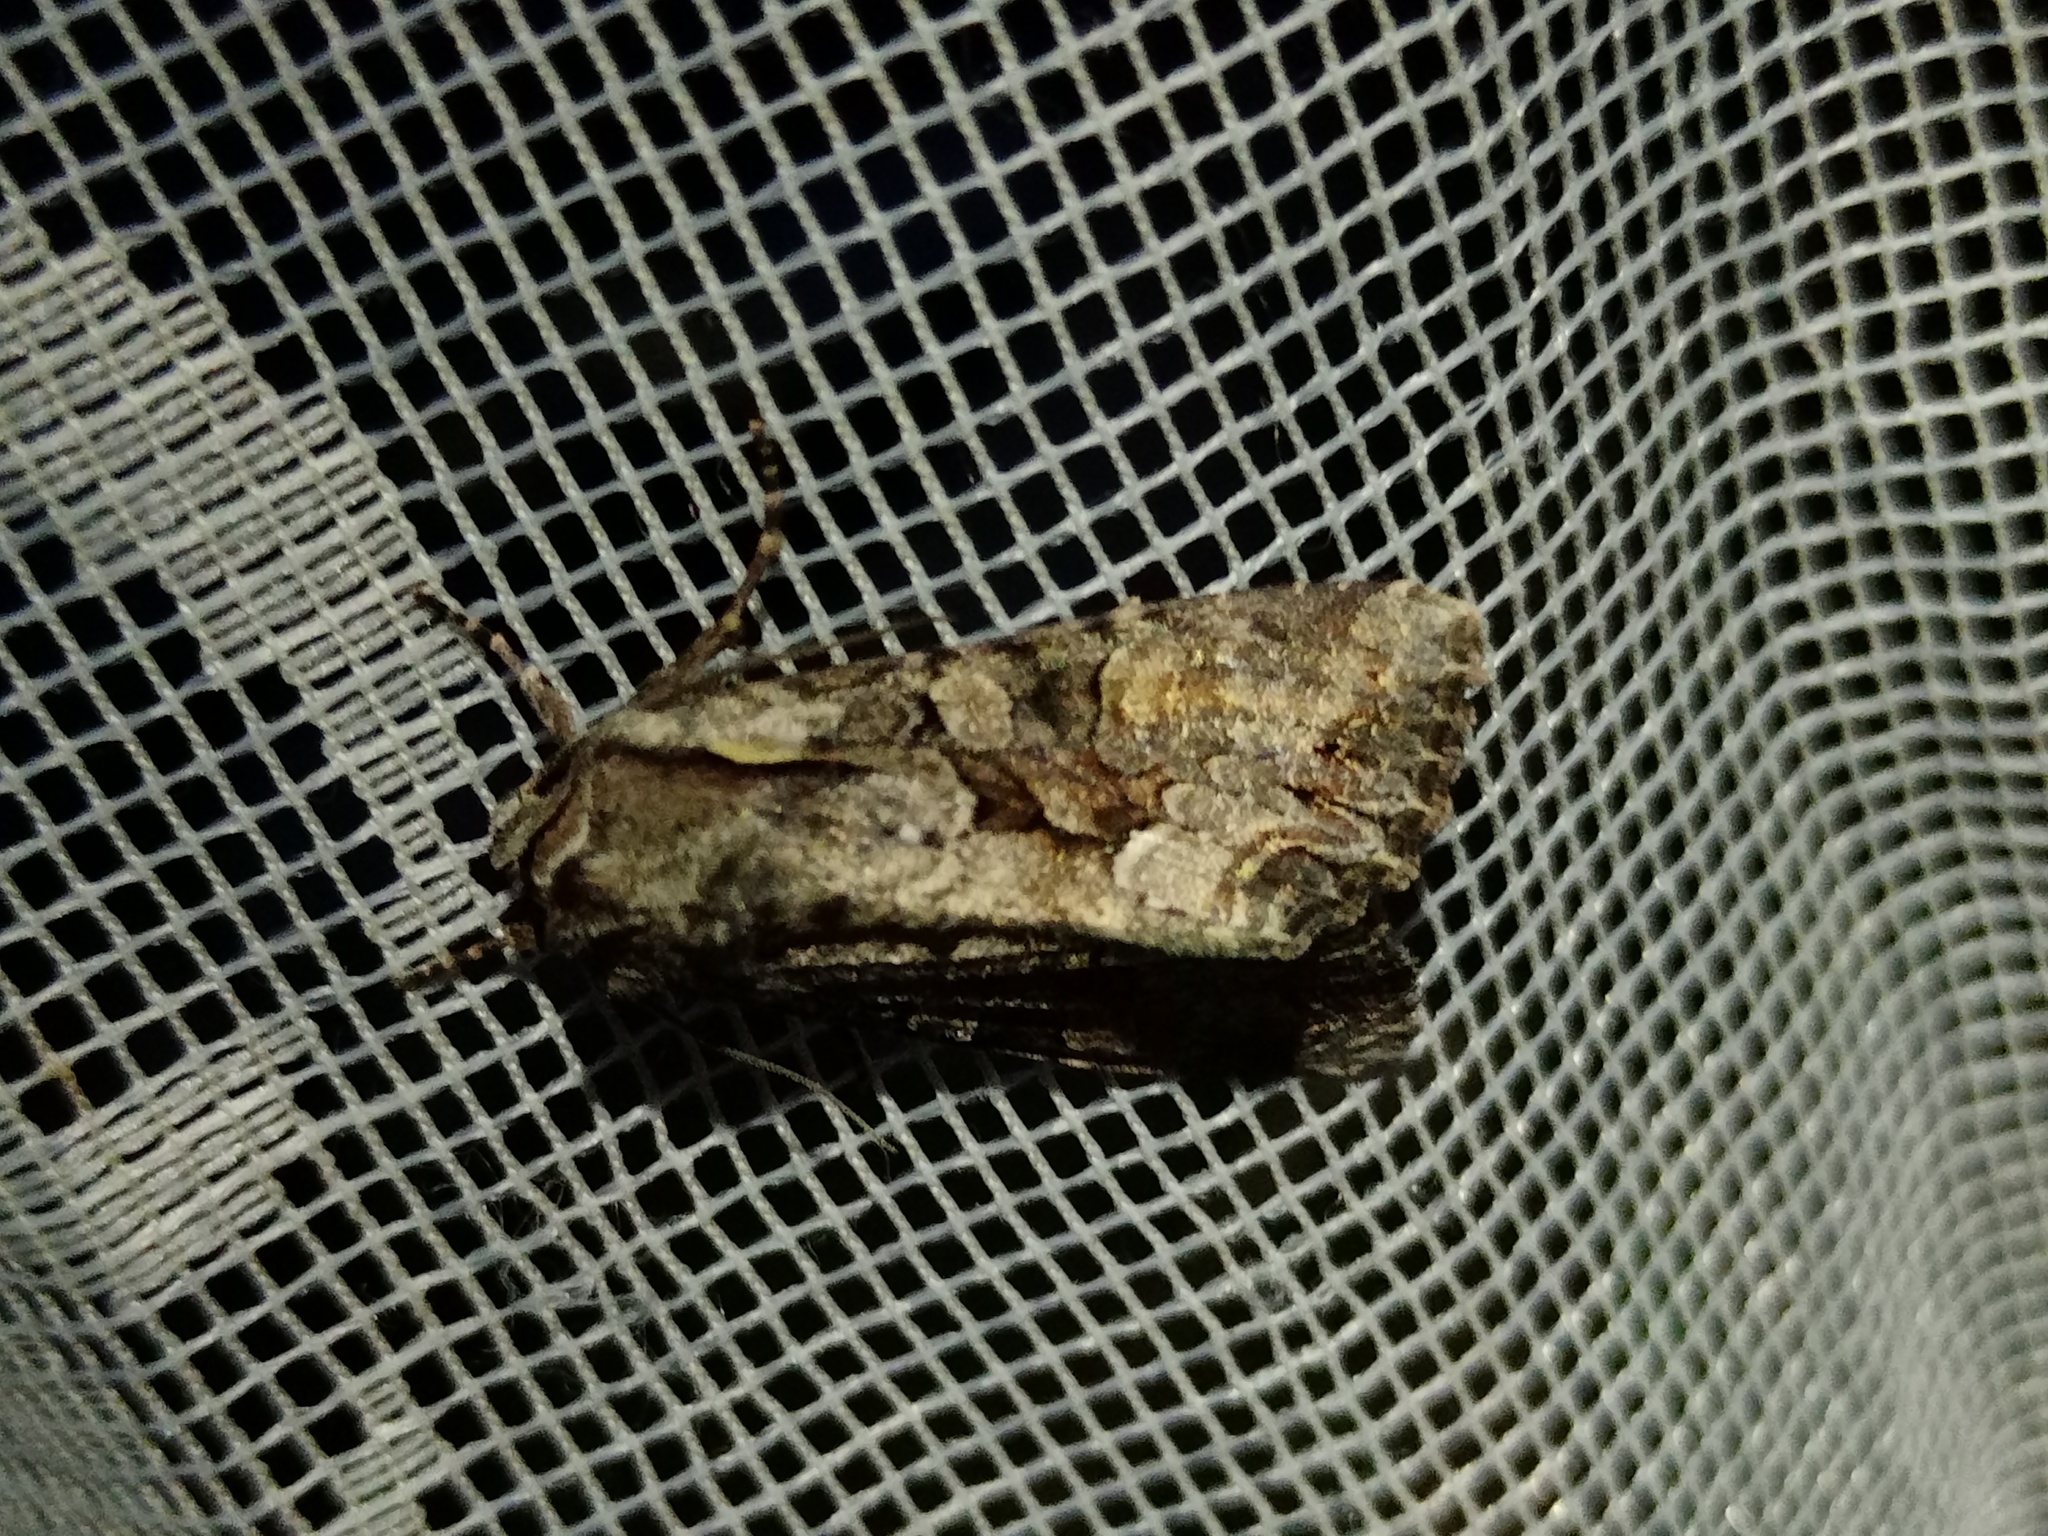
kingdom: Animalia
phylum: Arthropoda
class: Insecta
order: Lepidoptera
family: Noctuidae
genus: Lacanobia
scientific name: Lacanobia w-latinum
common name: Light brocade
